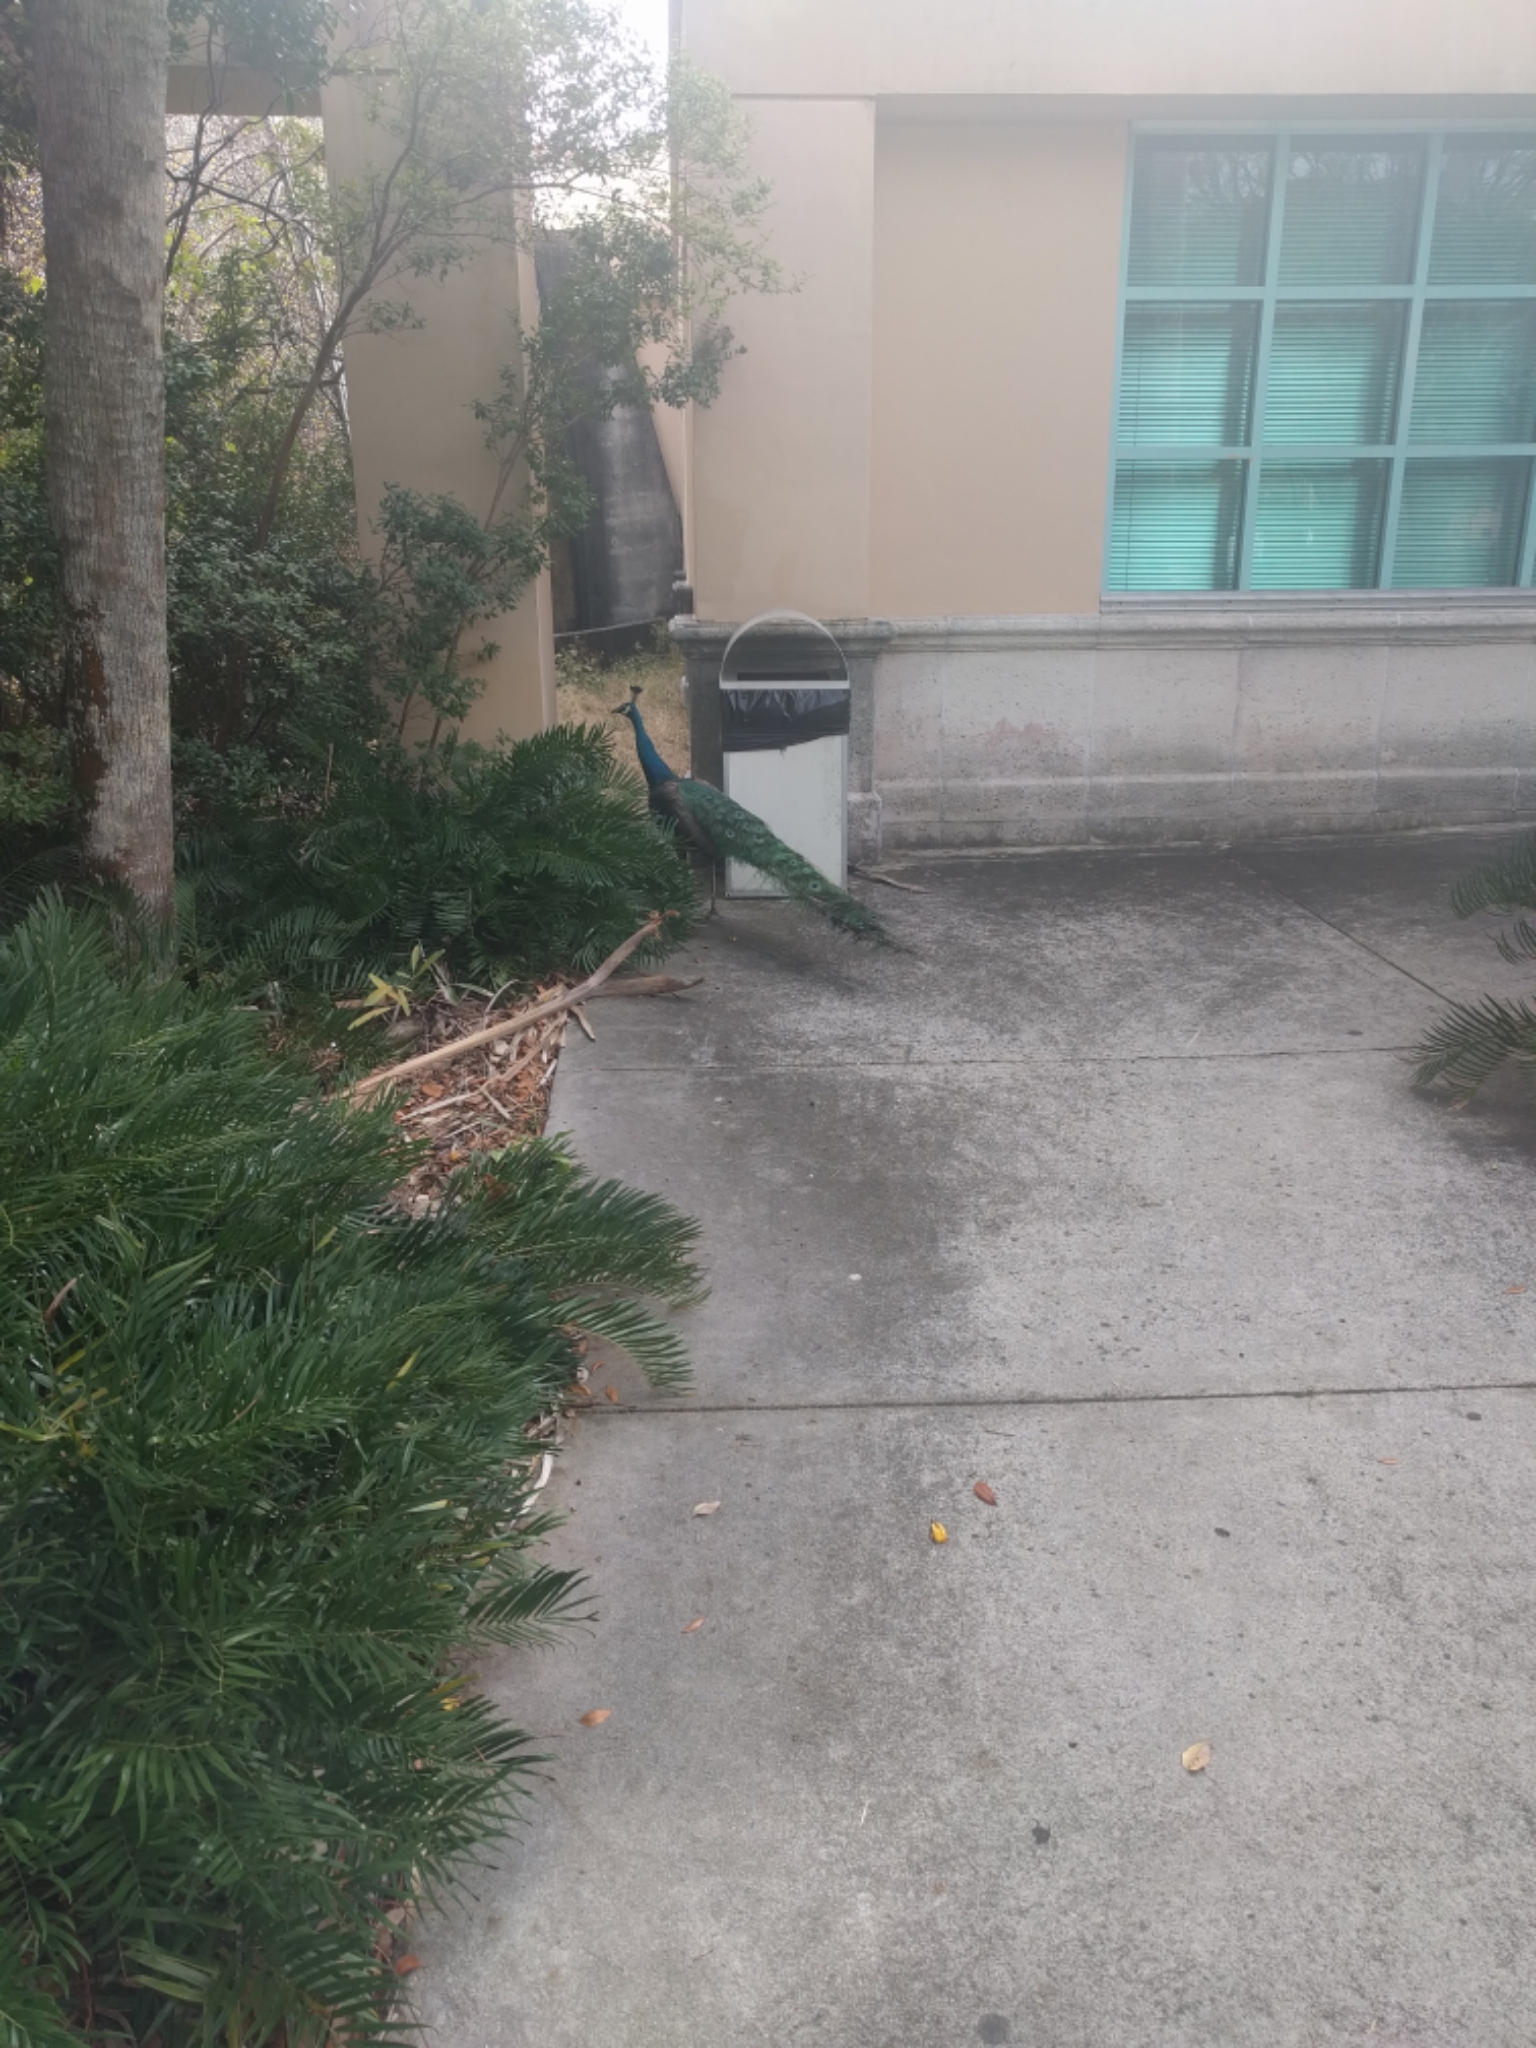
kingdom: Animalia
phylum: Chordata
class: Aves
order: Galliformes
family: Phasianidae
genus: Pavo
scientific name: Pavo cristatus
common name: Indian peafowl
